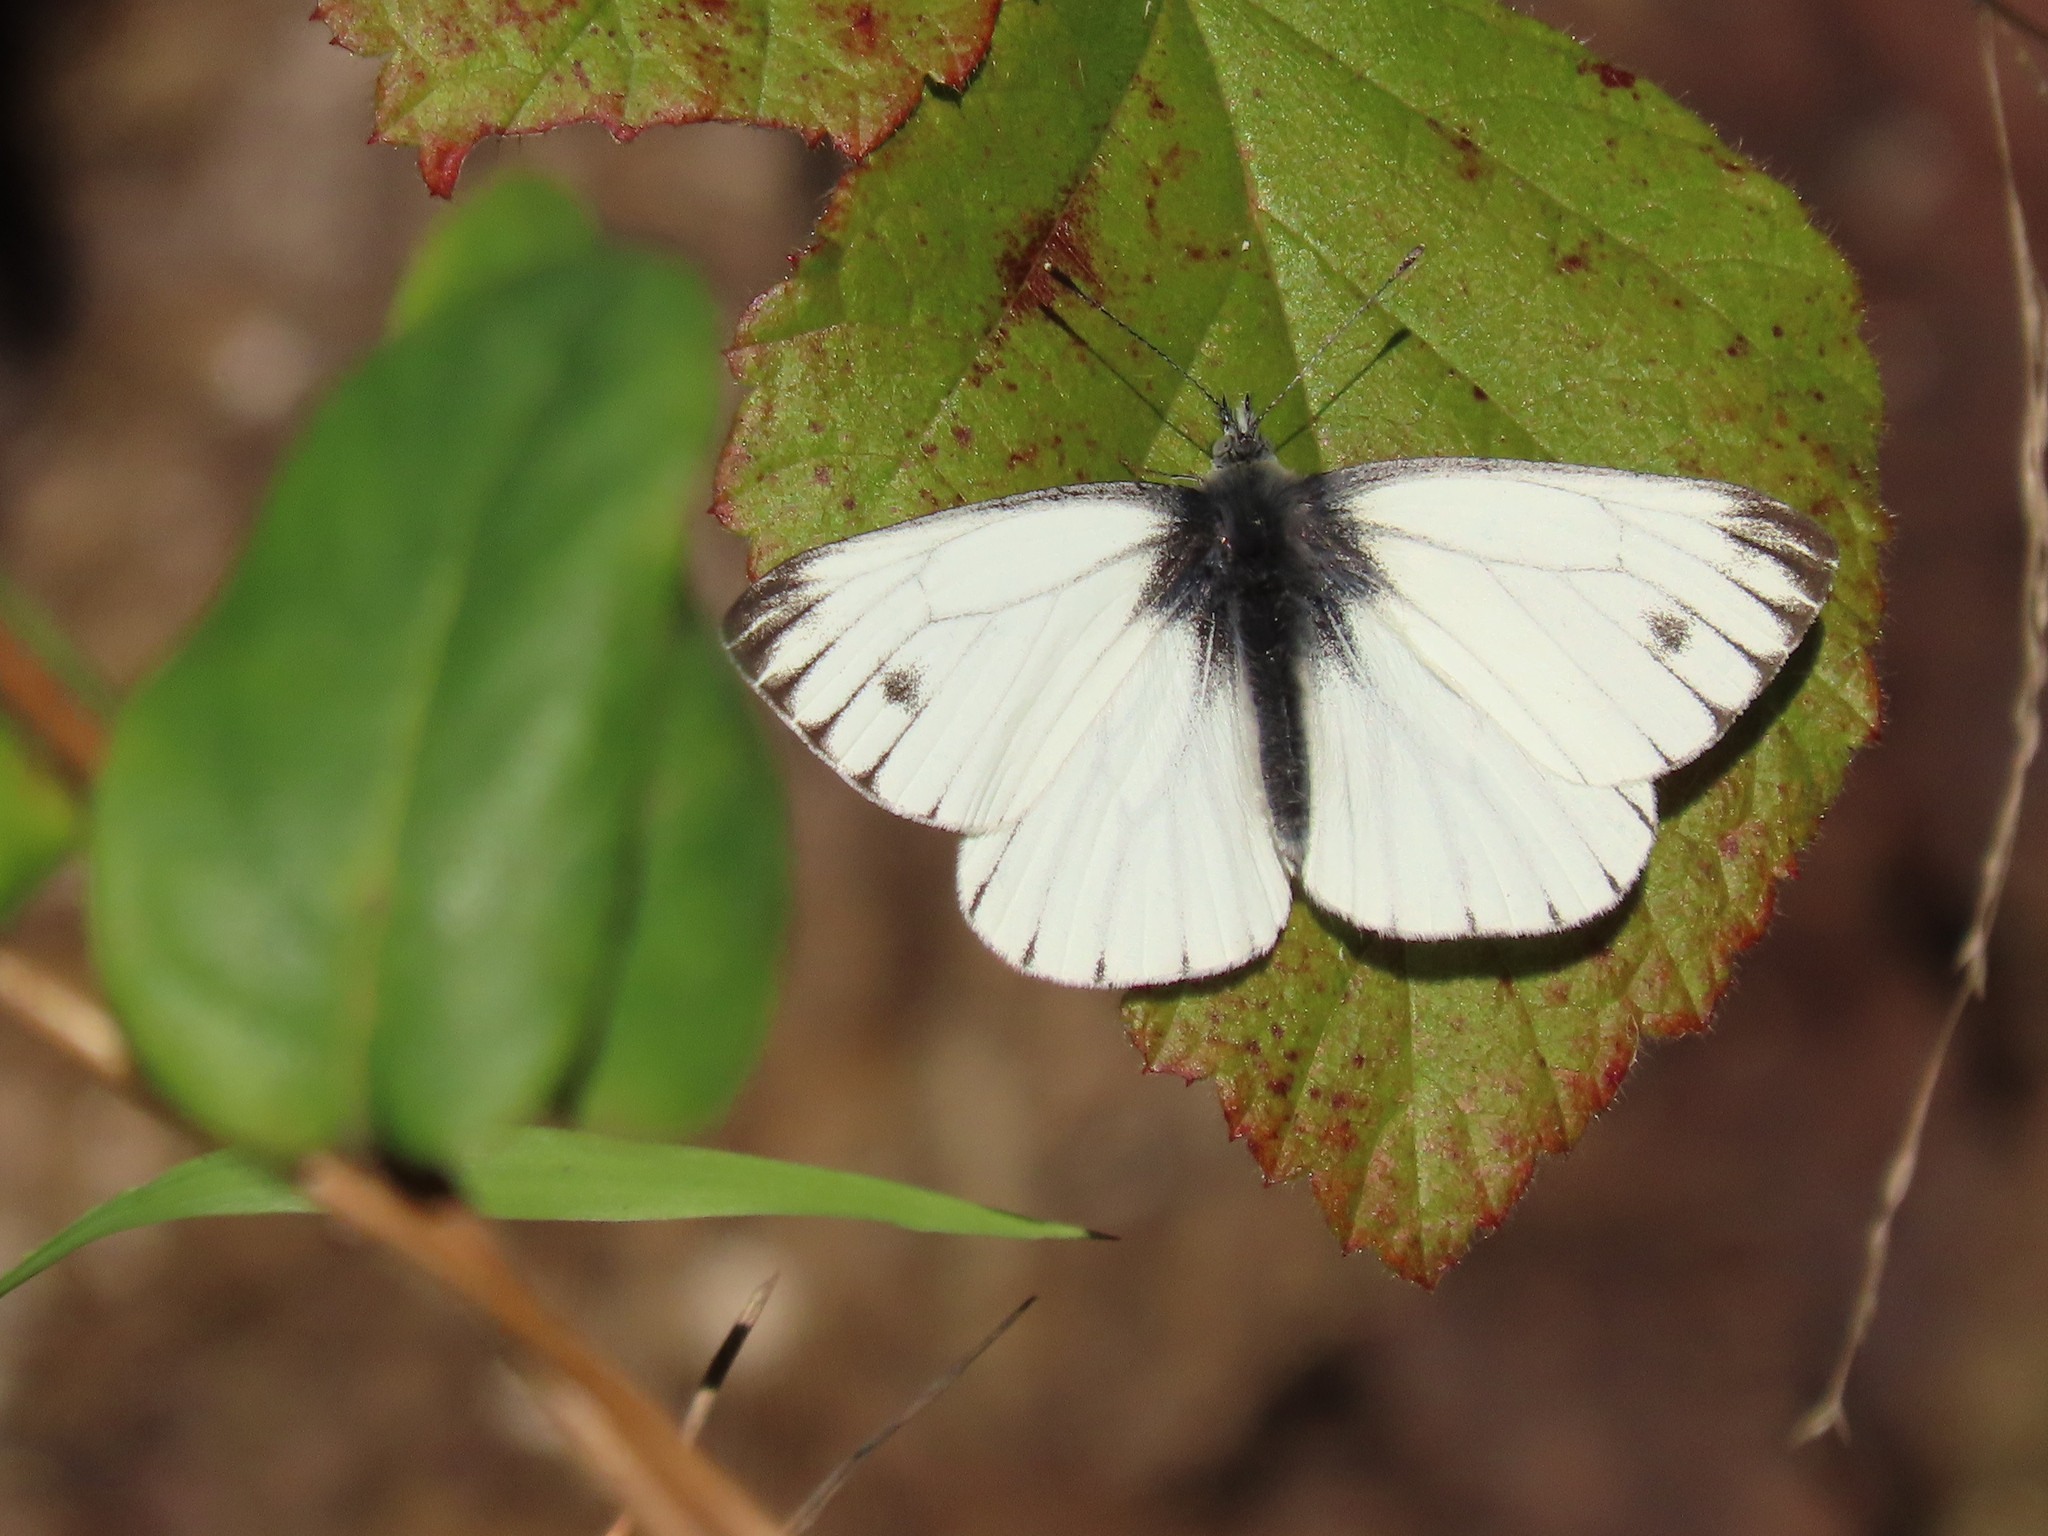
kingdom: Animalia
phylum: Arthropoda
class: Insecta
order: Lepidoptera
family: Pieridae
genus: Pieris
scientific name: Pieris marginalis
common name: Margined white
